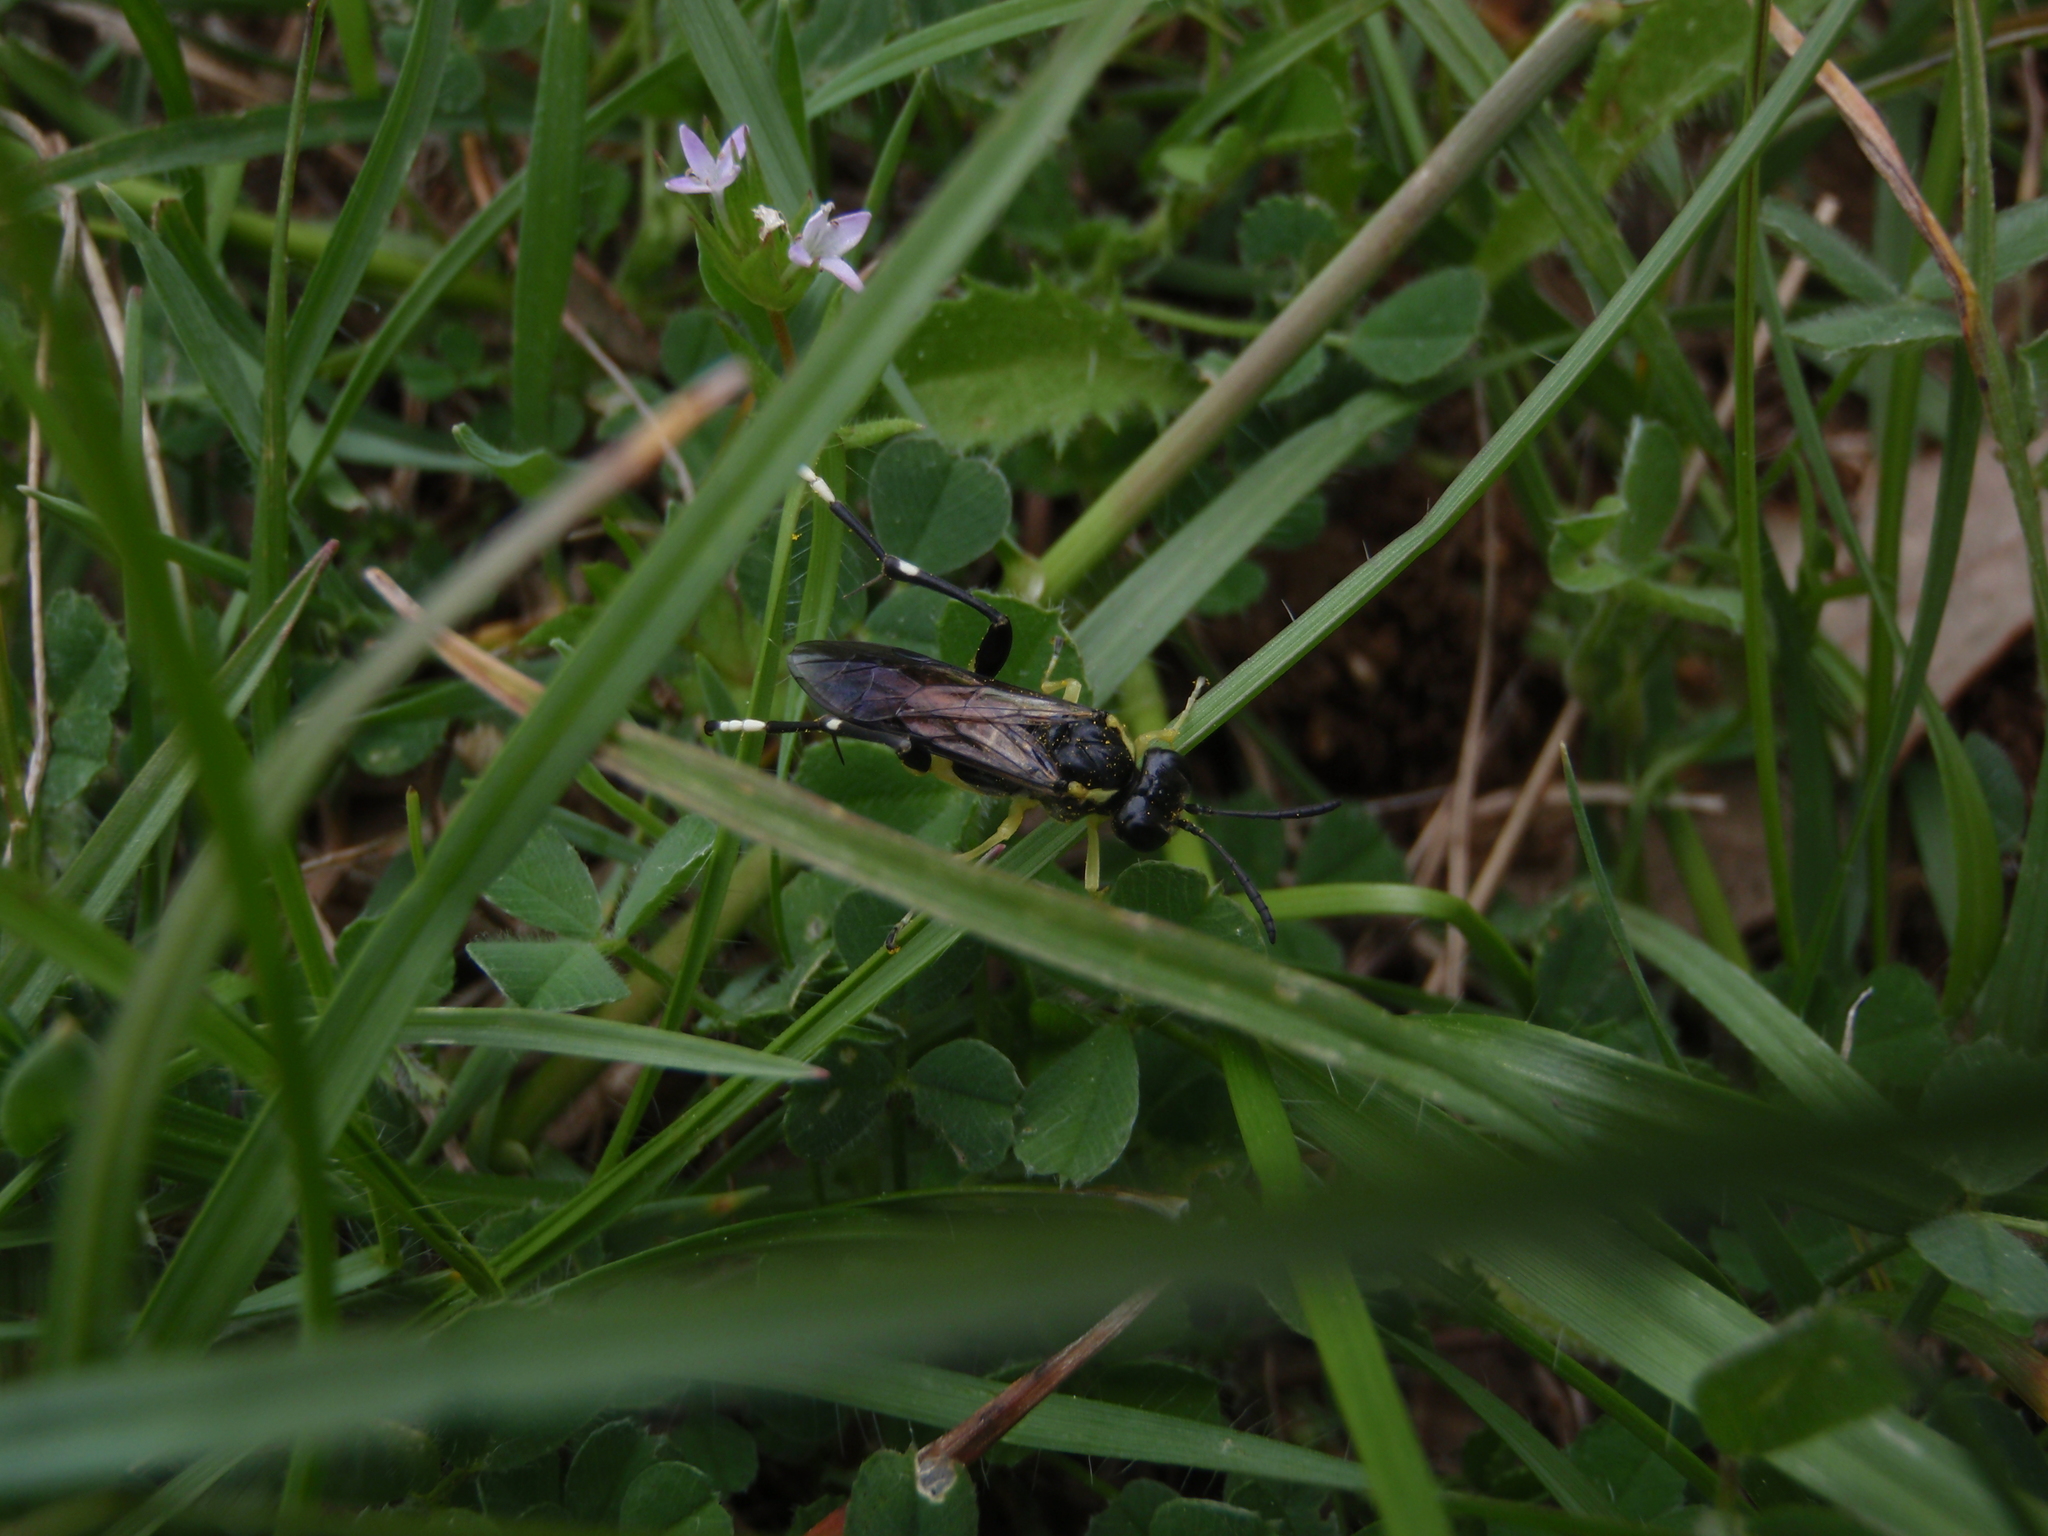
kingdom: Animalia
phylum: Arthropoda
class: Insecta
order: Hymenoptera
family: Tenthredinidae
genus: Macrophya
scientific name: Macrophya montana
